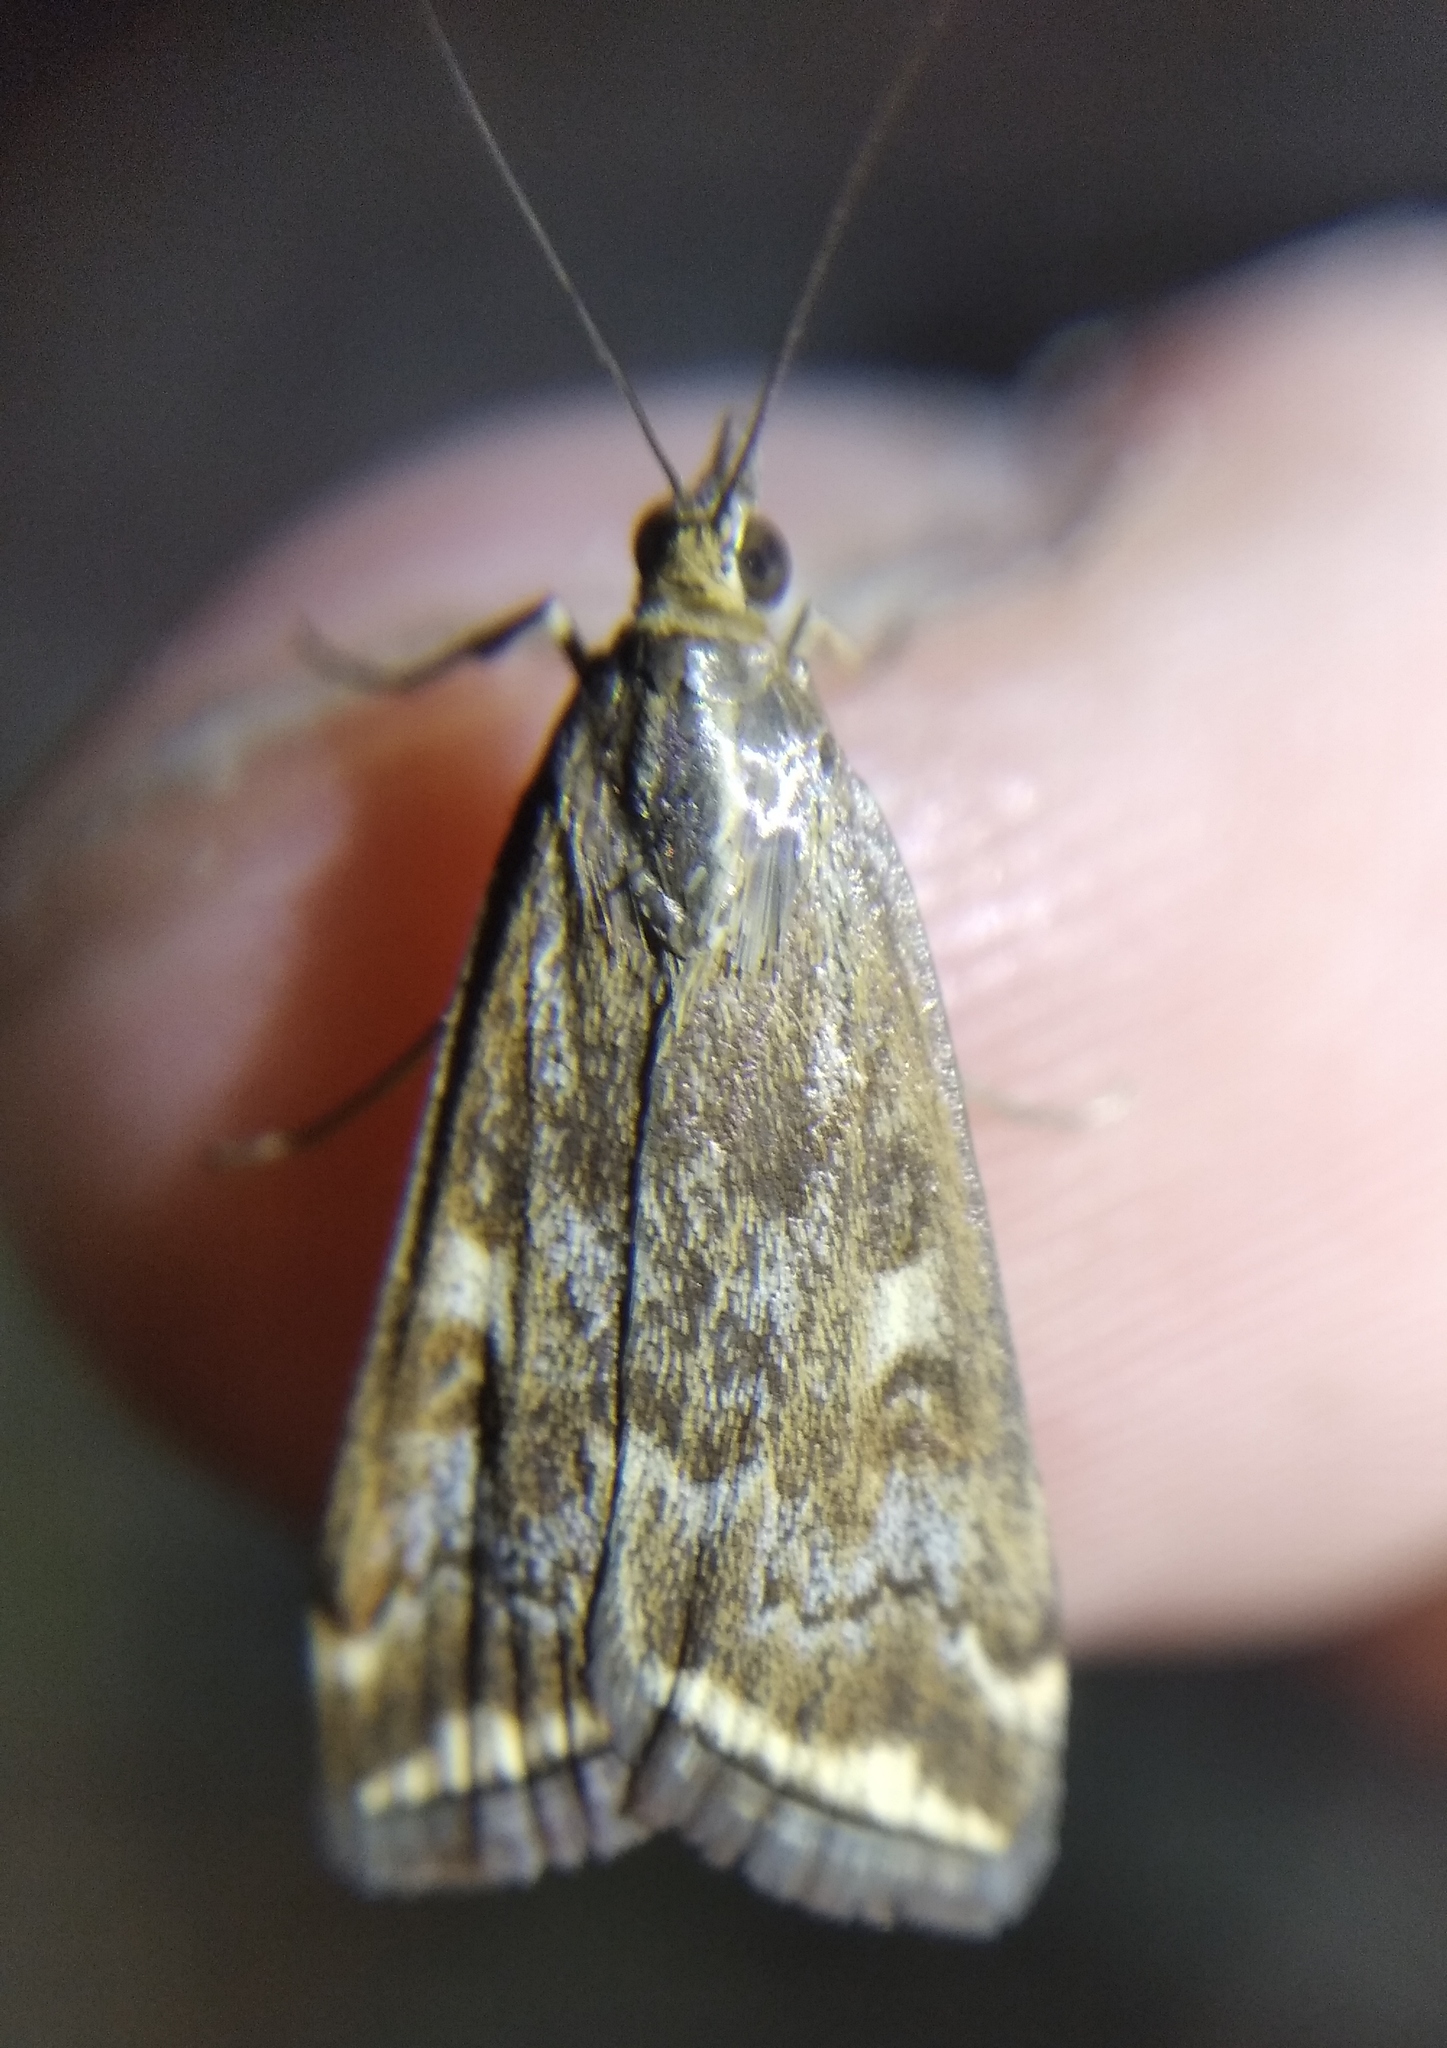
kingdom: Animalia
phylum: Arthropoda
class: Insecta
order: Lepidoptera
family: Crambidae
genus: Loxostege
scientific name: Loxostege sticticalis
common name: Crambid moth
